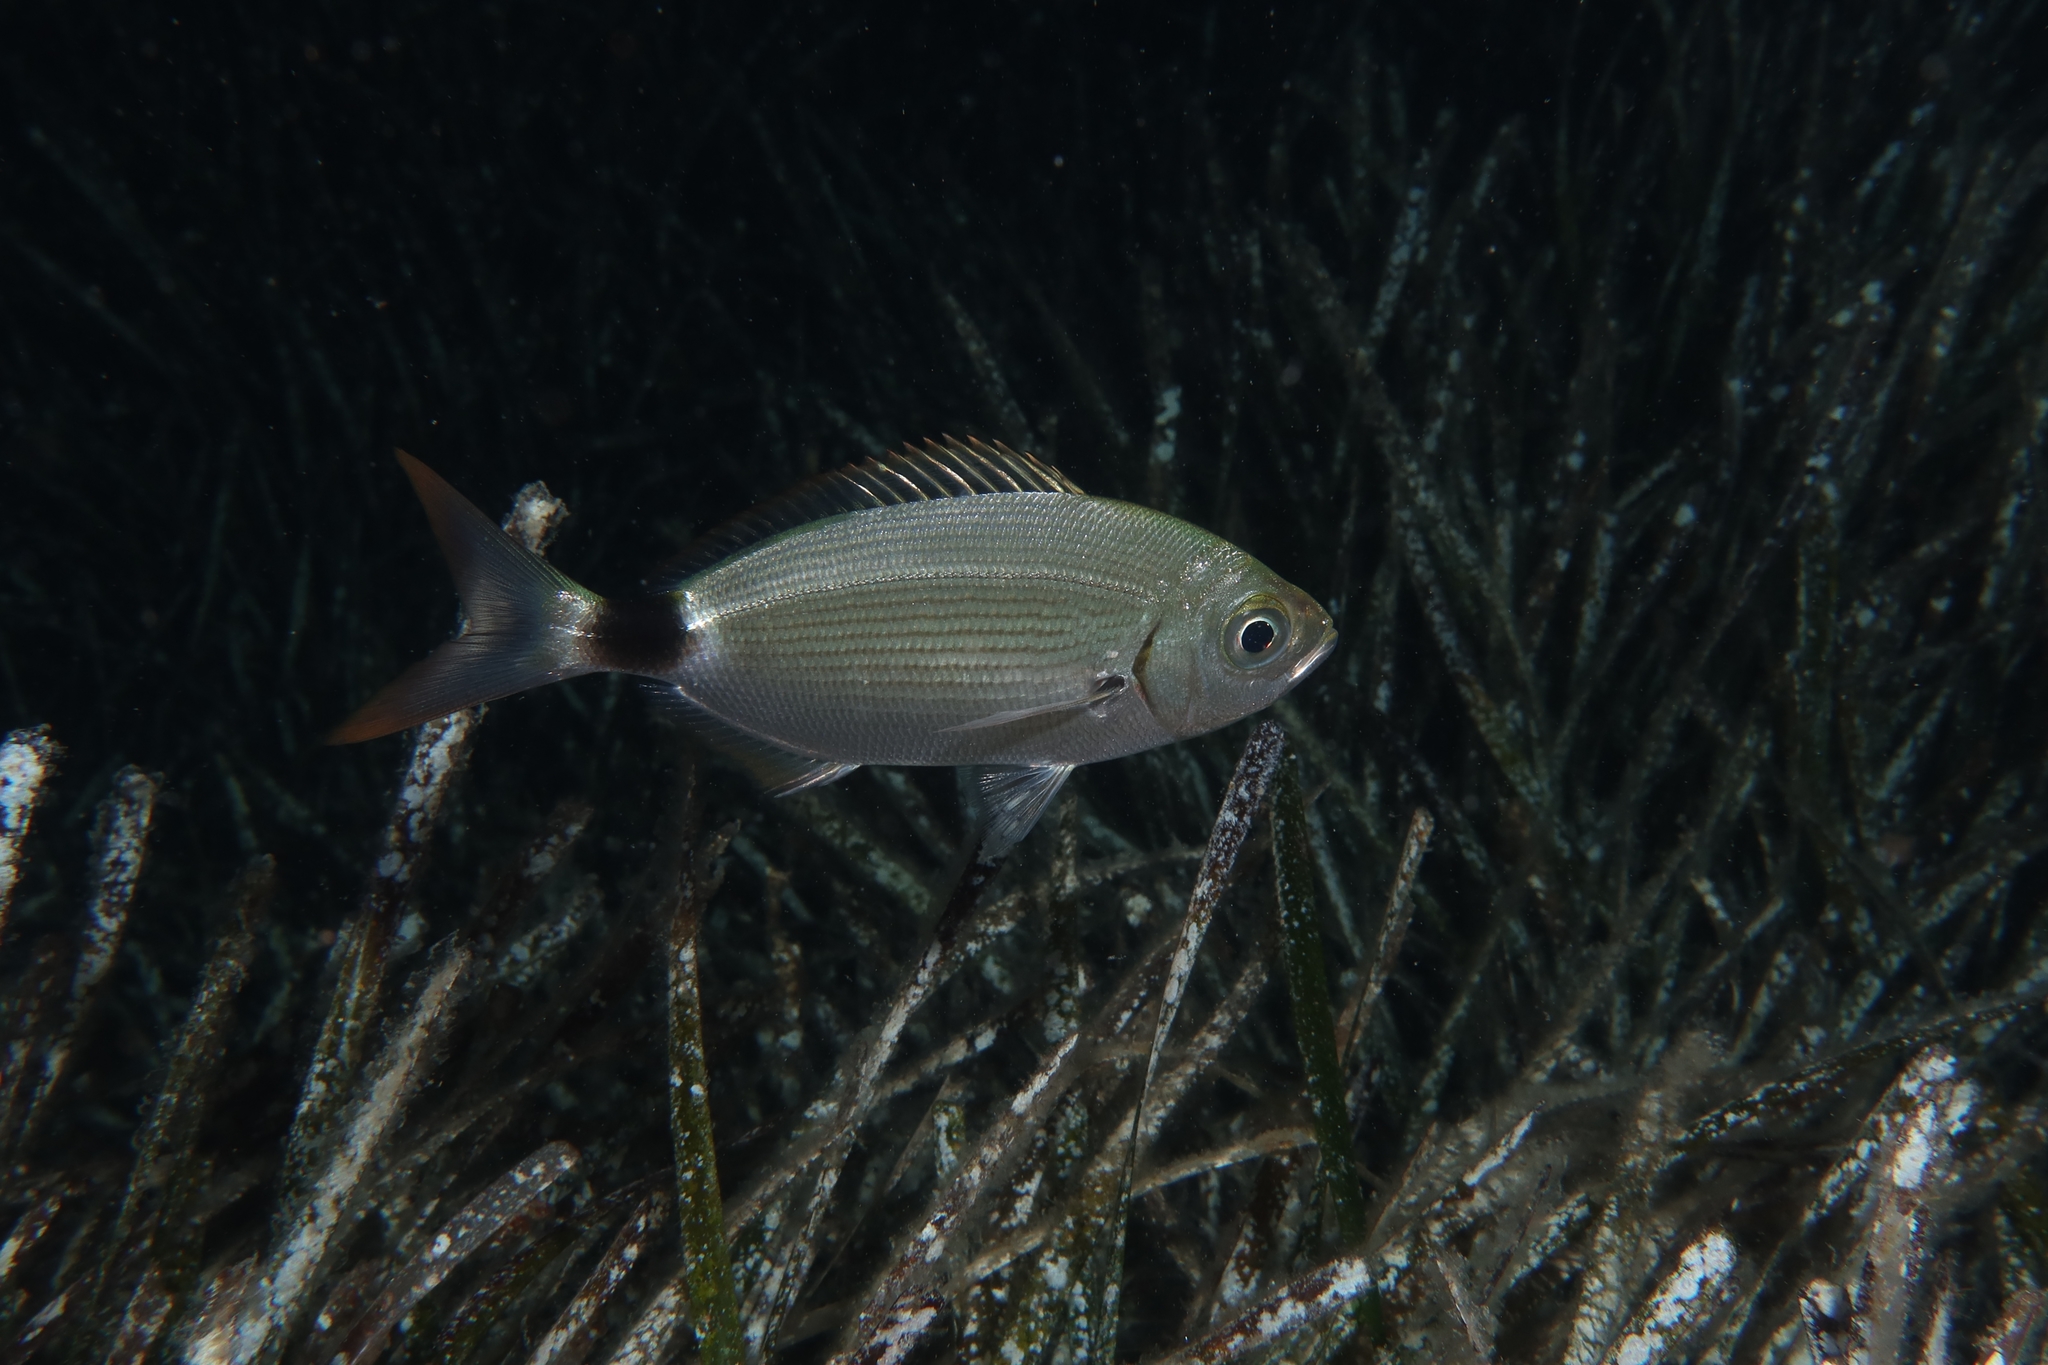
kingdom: Animalia
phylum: Chordata
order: Perciformes
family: Sparidae
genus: Oblada
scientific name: Oblada melanura
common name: Saddled seabream
